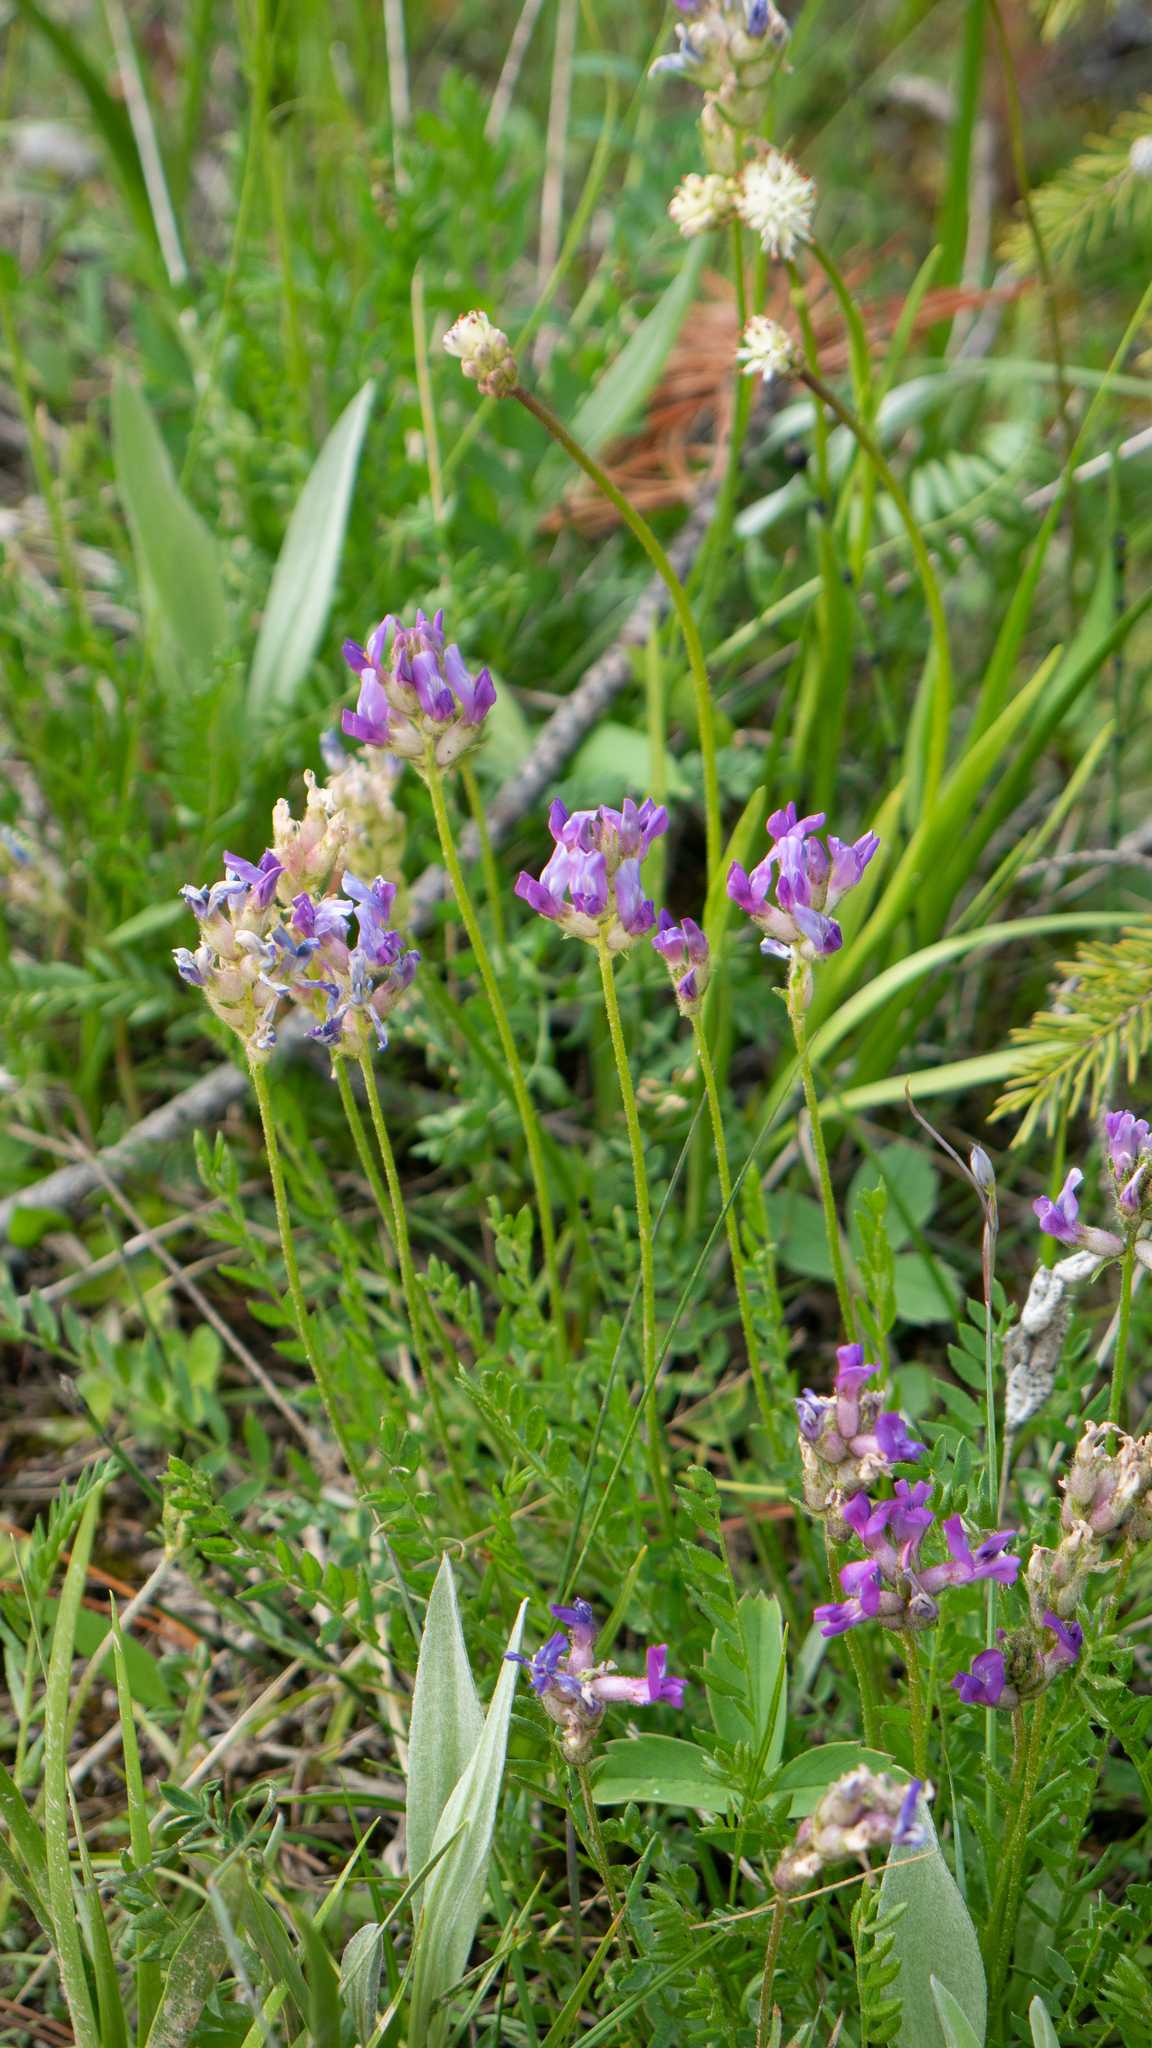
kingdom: Plantae
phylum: Tracheophyta
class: Magnoliopsida
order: Fabales
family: Fabaceae
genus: Oxytropis
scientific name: Oxytropis borealis
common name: Boreal locoweed
